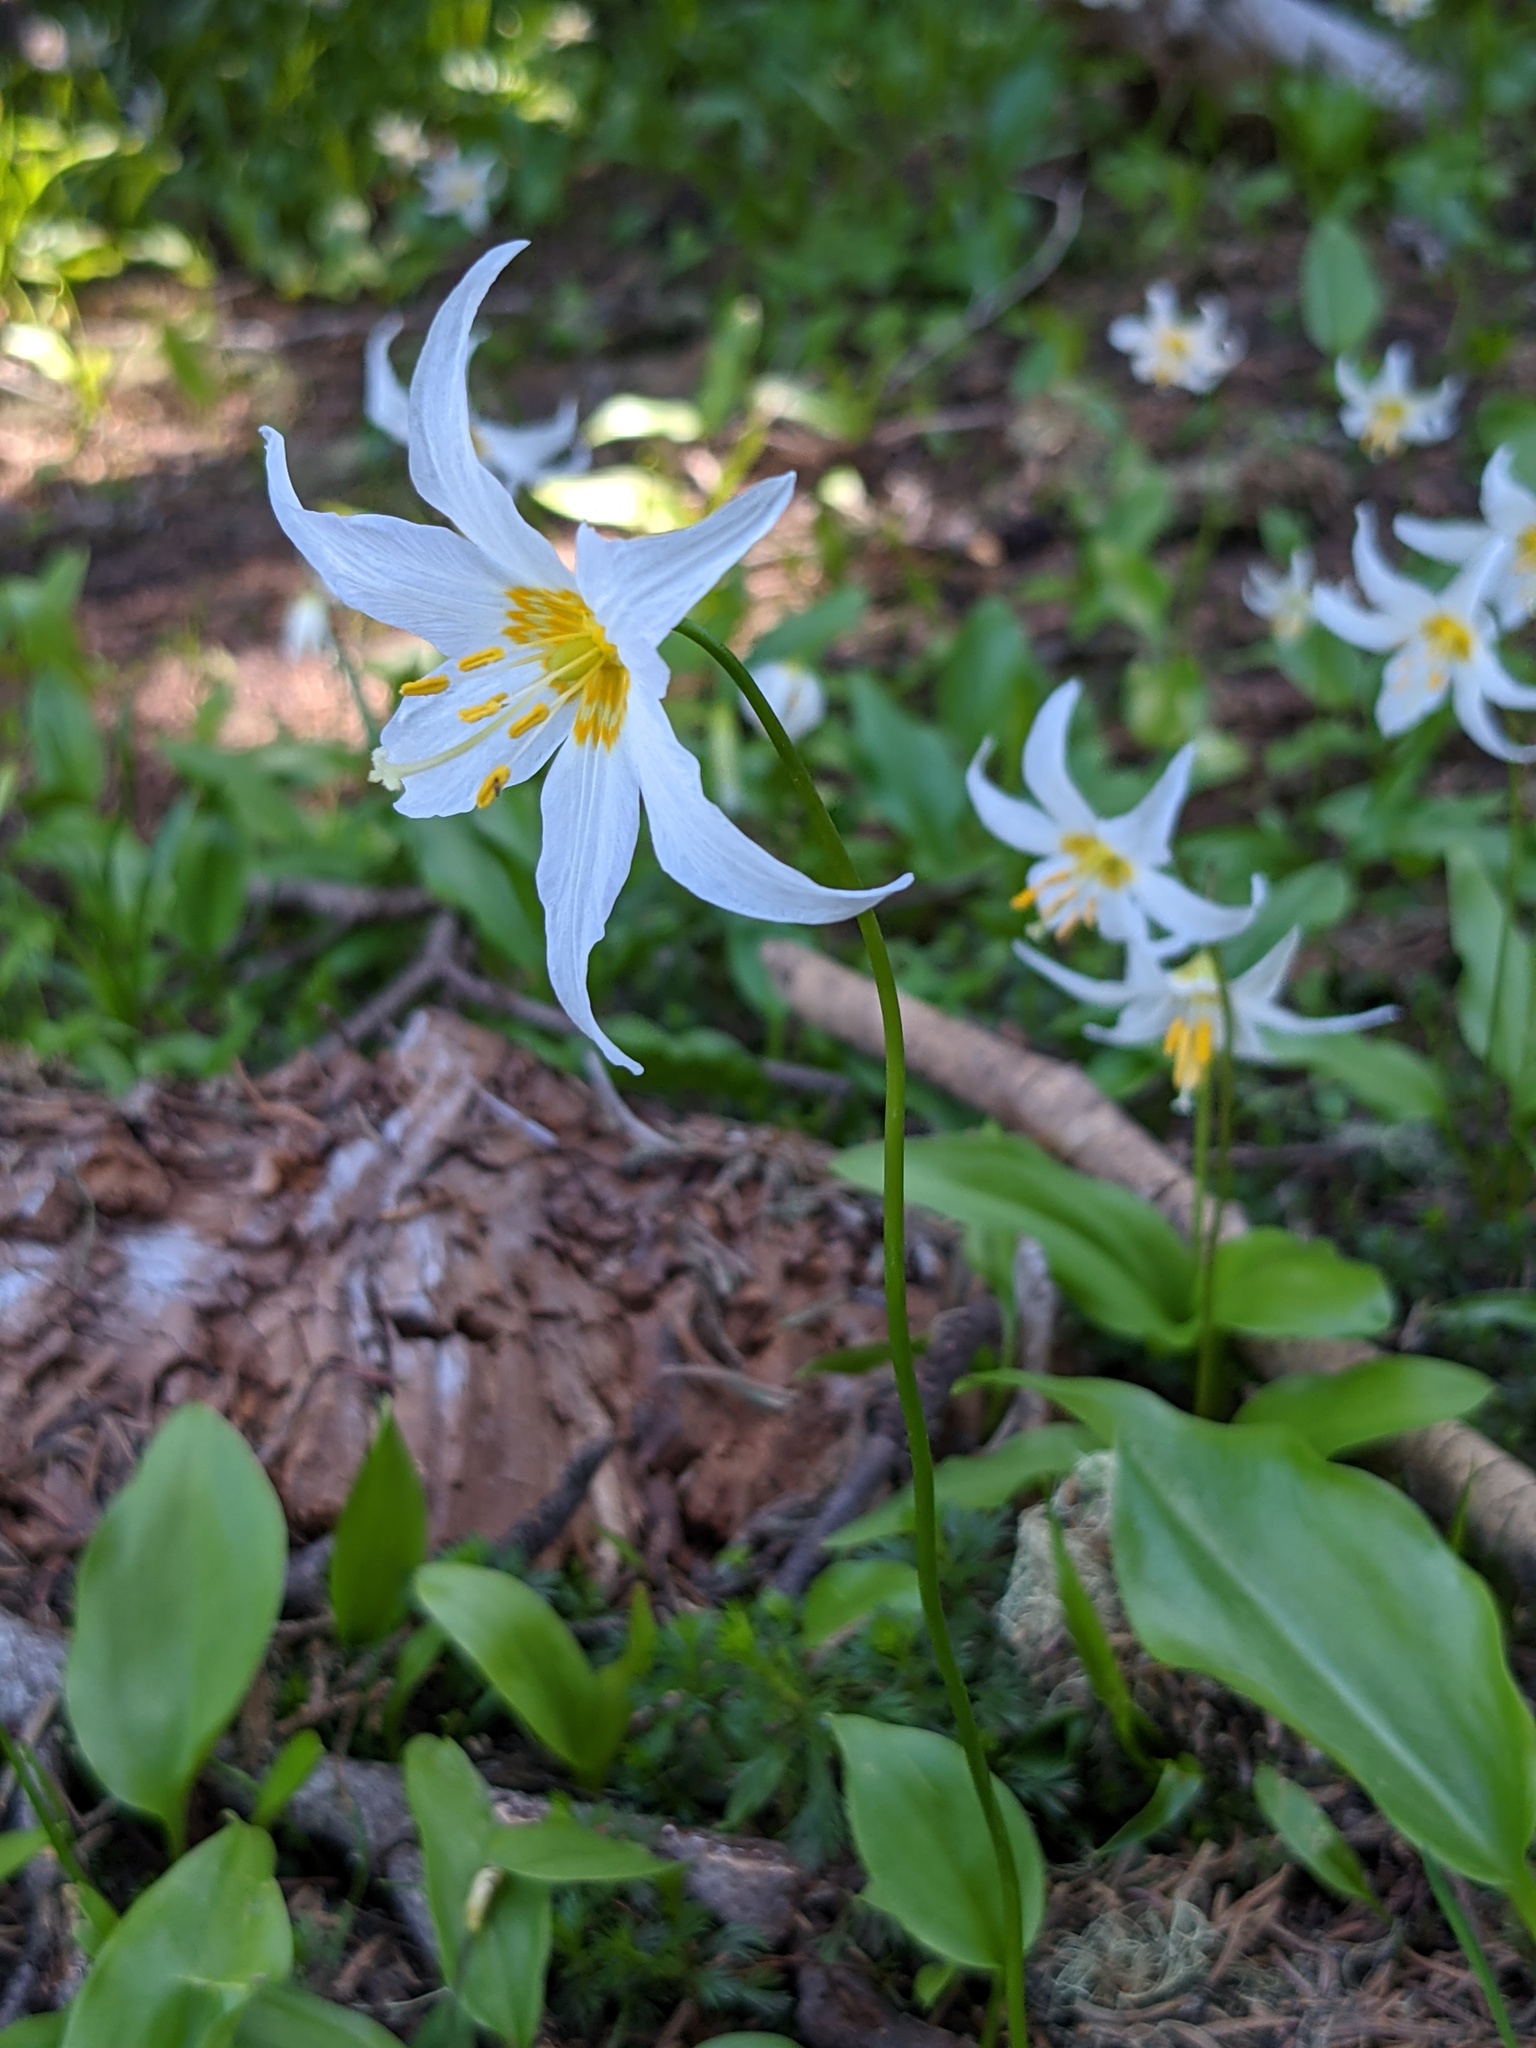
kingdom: Plantae
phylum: Tracheophyta
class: Liliopsida
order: Liliales
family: Liliaceae
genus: Erythronium
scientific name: Erythronium montanum
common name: Avalanche lily
